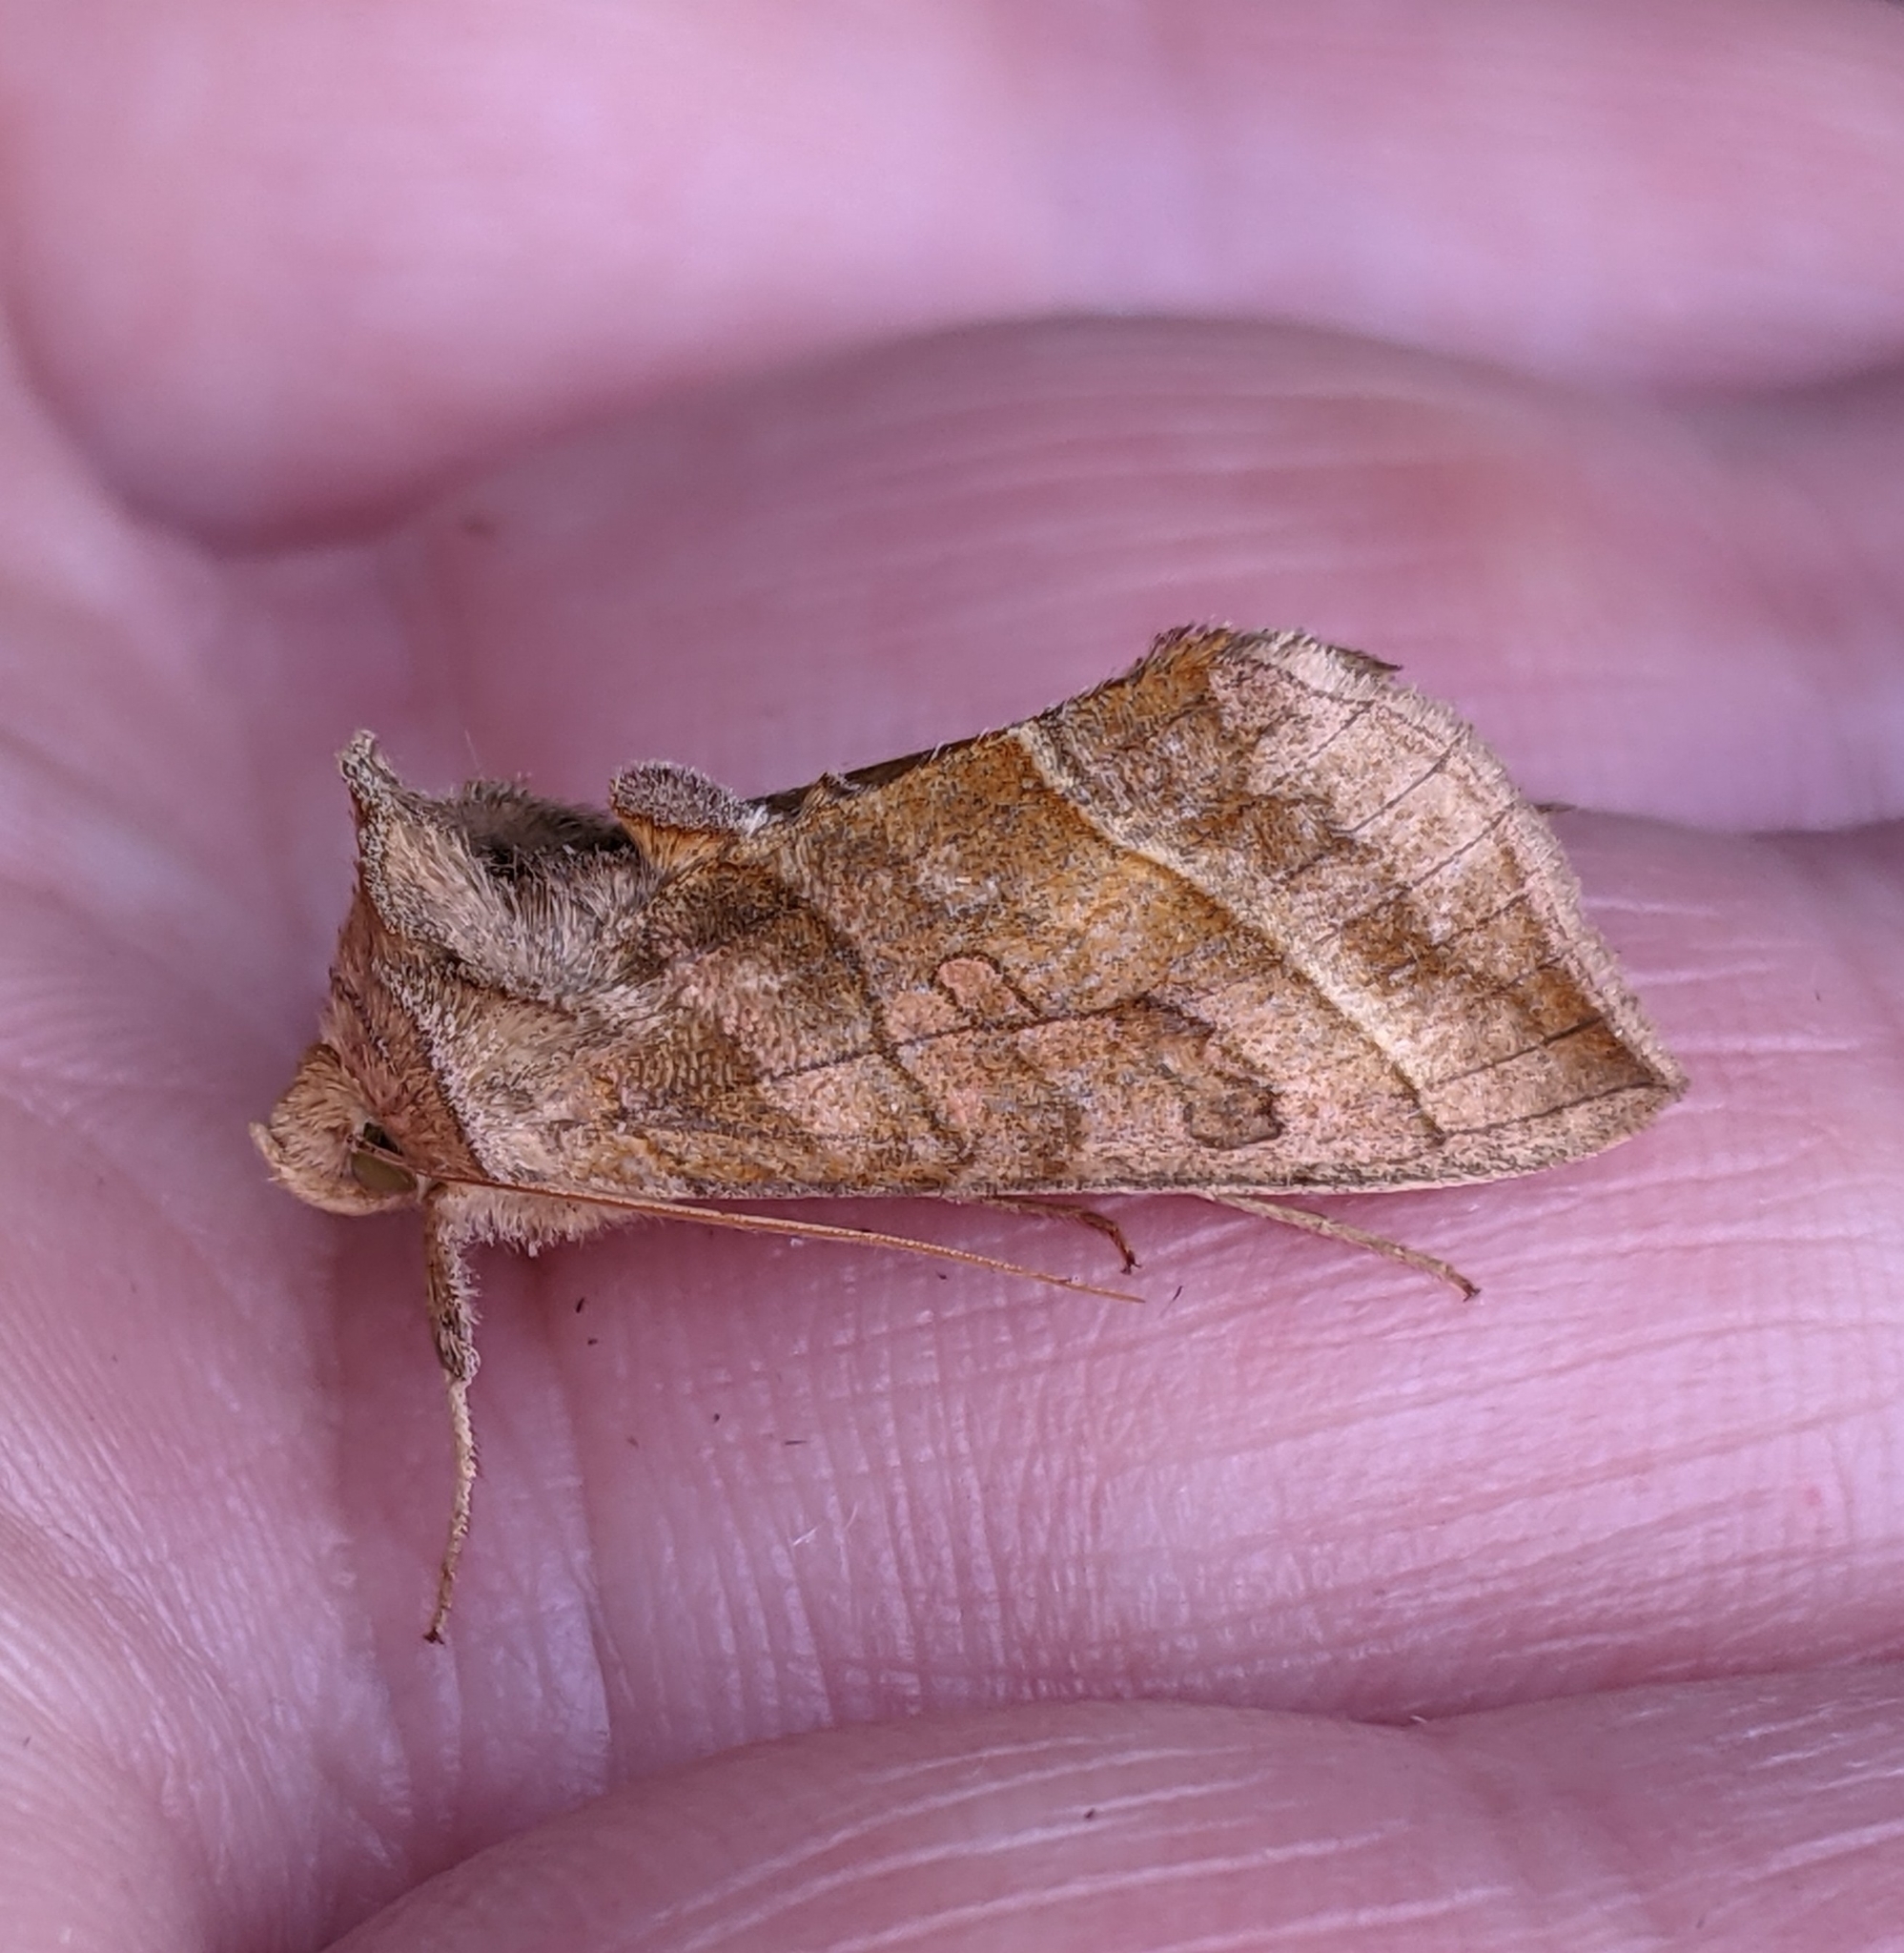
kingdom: Animalia
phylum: Arthropoda
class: Insecta
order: Lepidoptera
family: Noctuidae
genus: Diachrysia
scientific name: Diachrysia aereoides
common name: Dark-spotted looper moth
